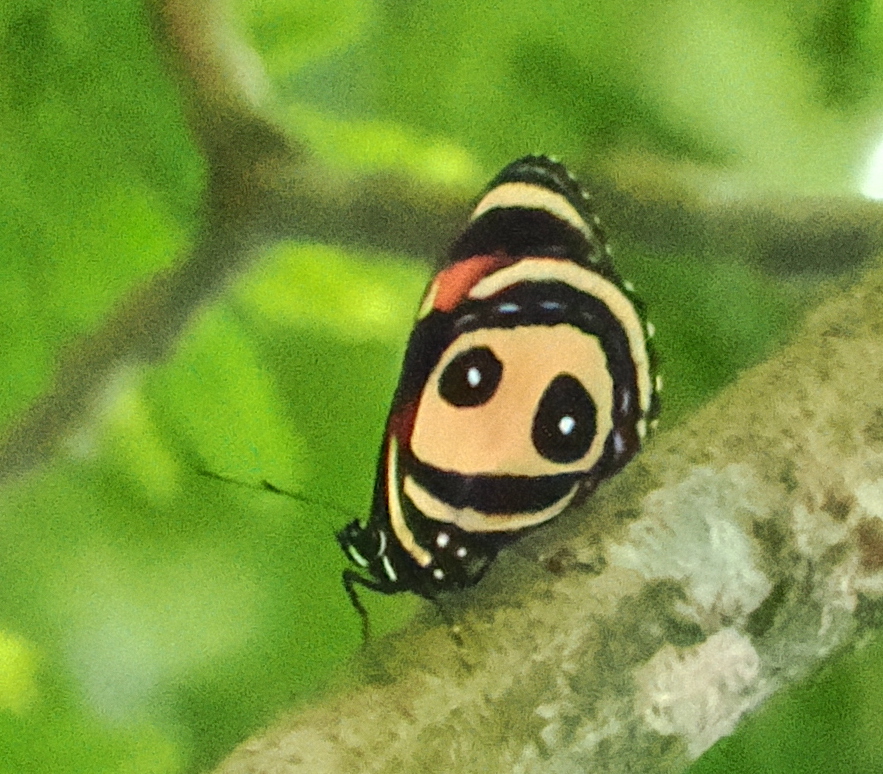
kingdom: Animalia
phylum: Arthropoda
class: Insecta
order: Lepidoptera
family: Nymphalidae
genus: Catagramma
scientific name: Catagramma Callicore pitheas
